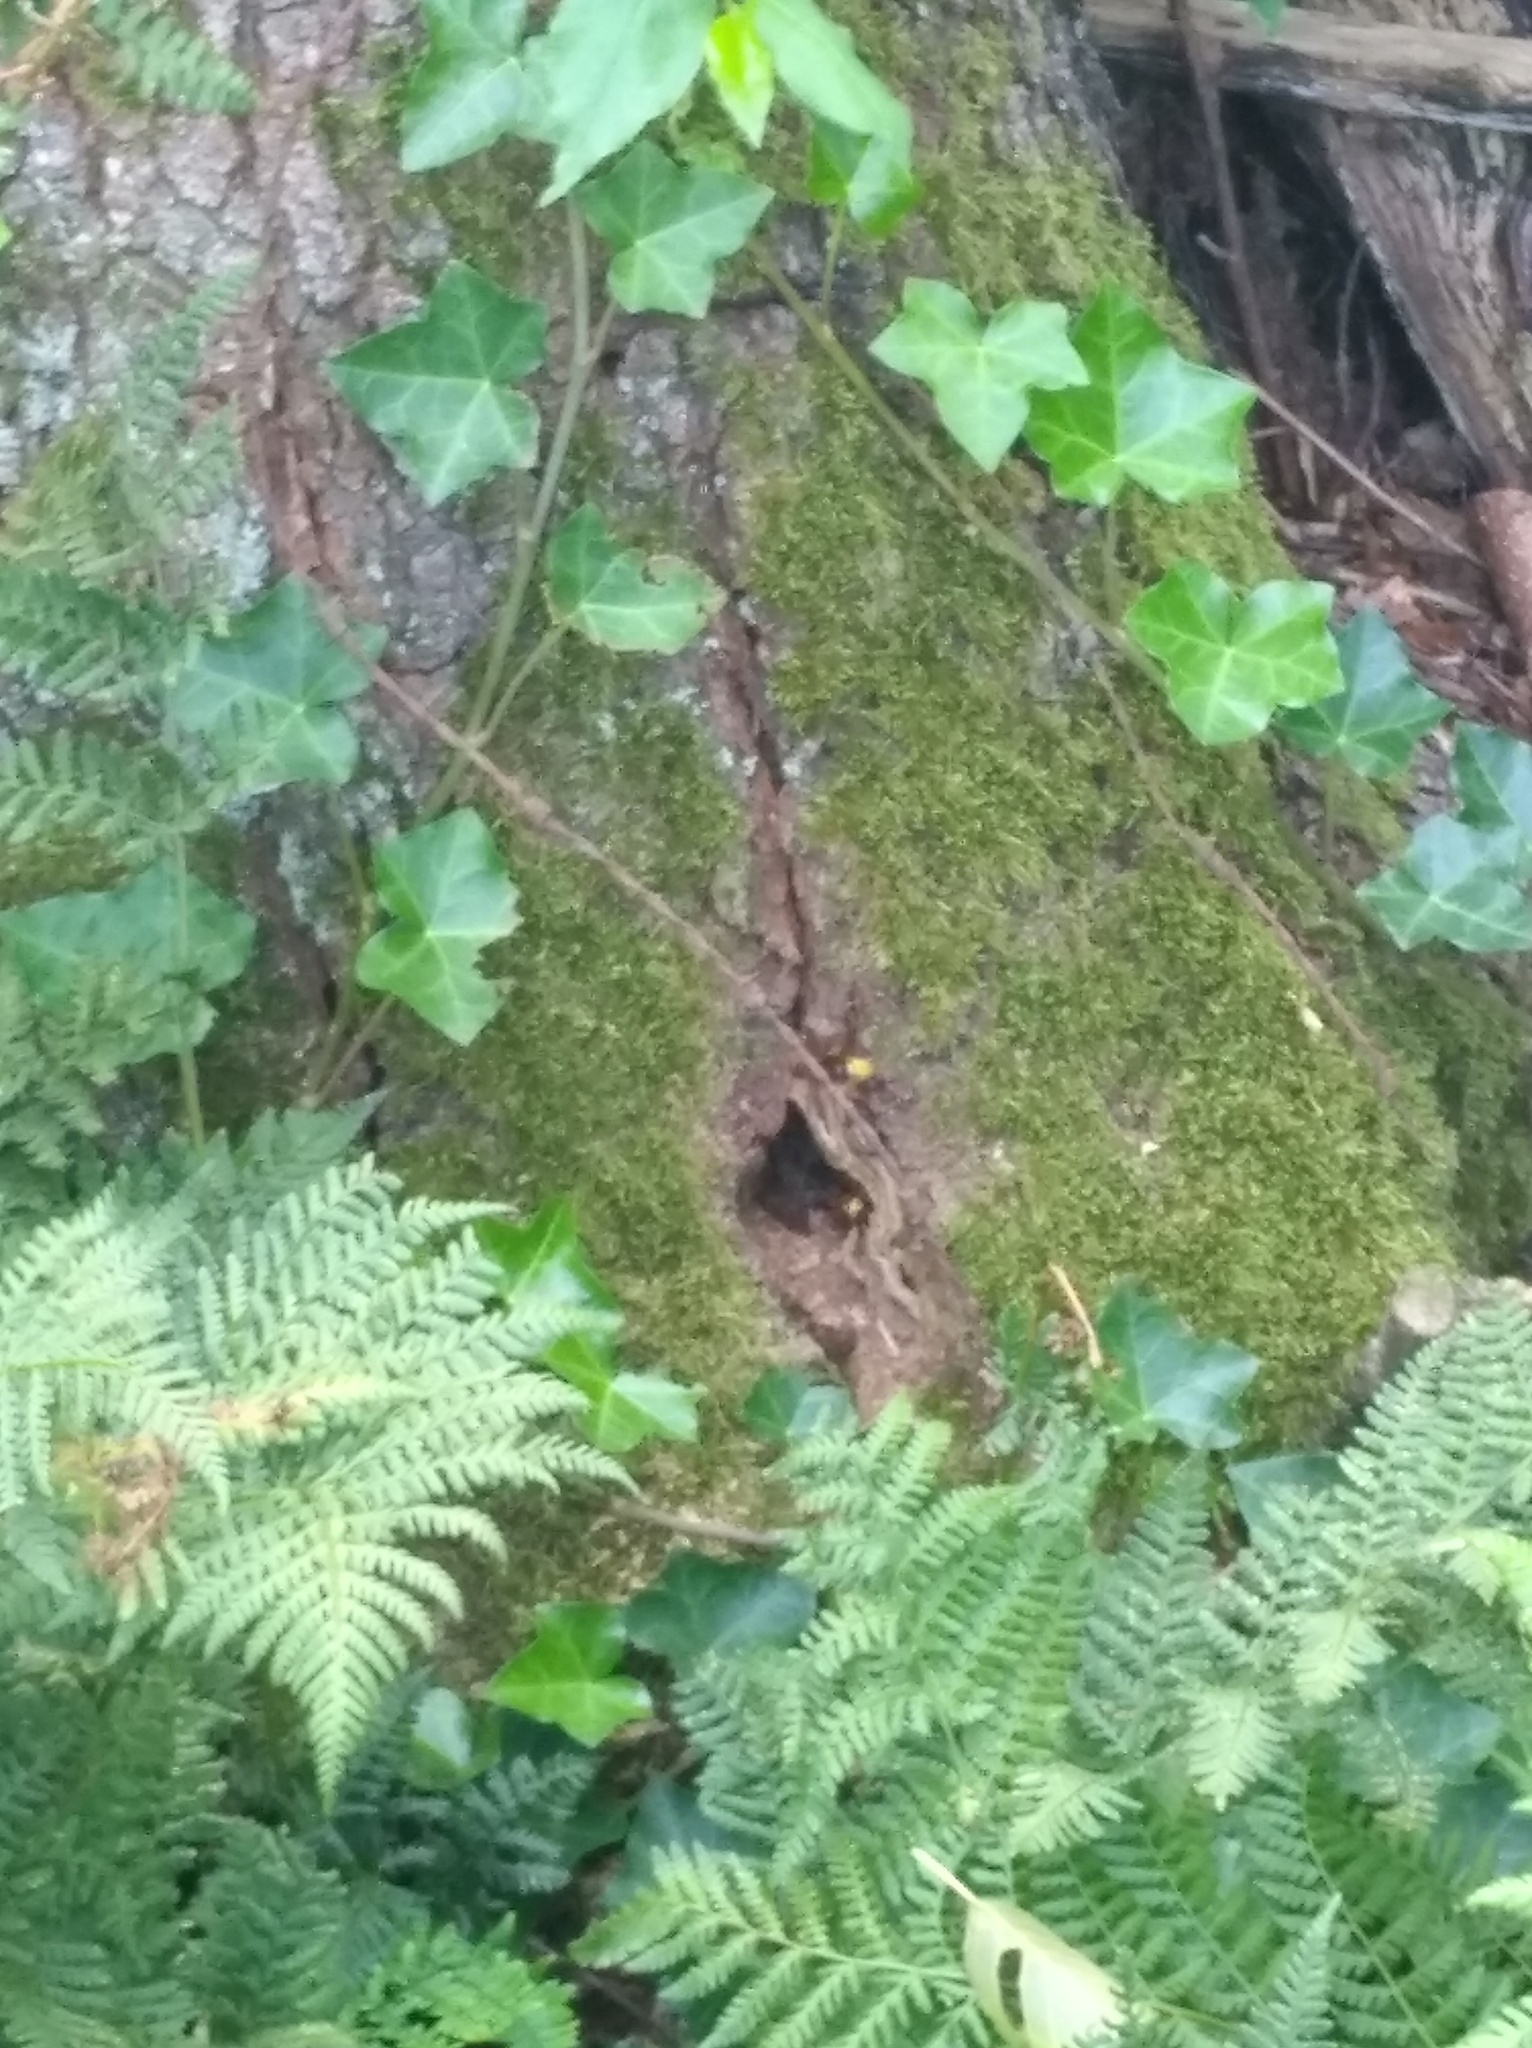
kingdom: Animalia
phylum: Arthropoda
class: Insecta
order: Hymenoptera
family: Vespidae
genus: Vespa
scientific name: Vespa crabro
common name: Hornet
